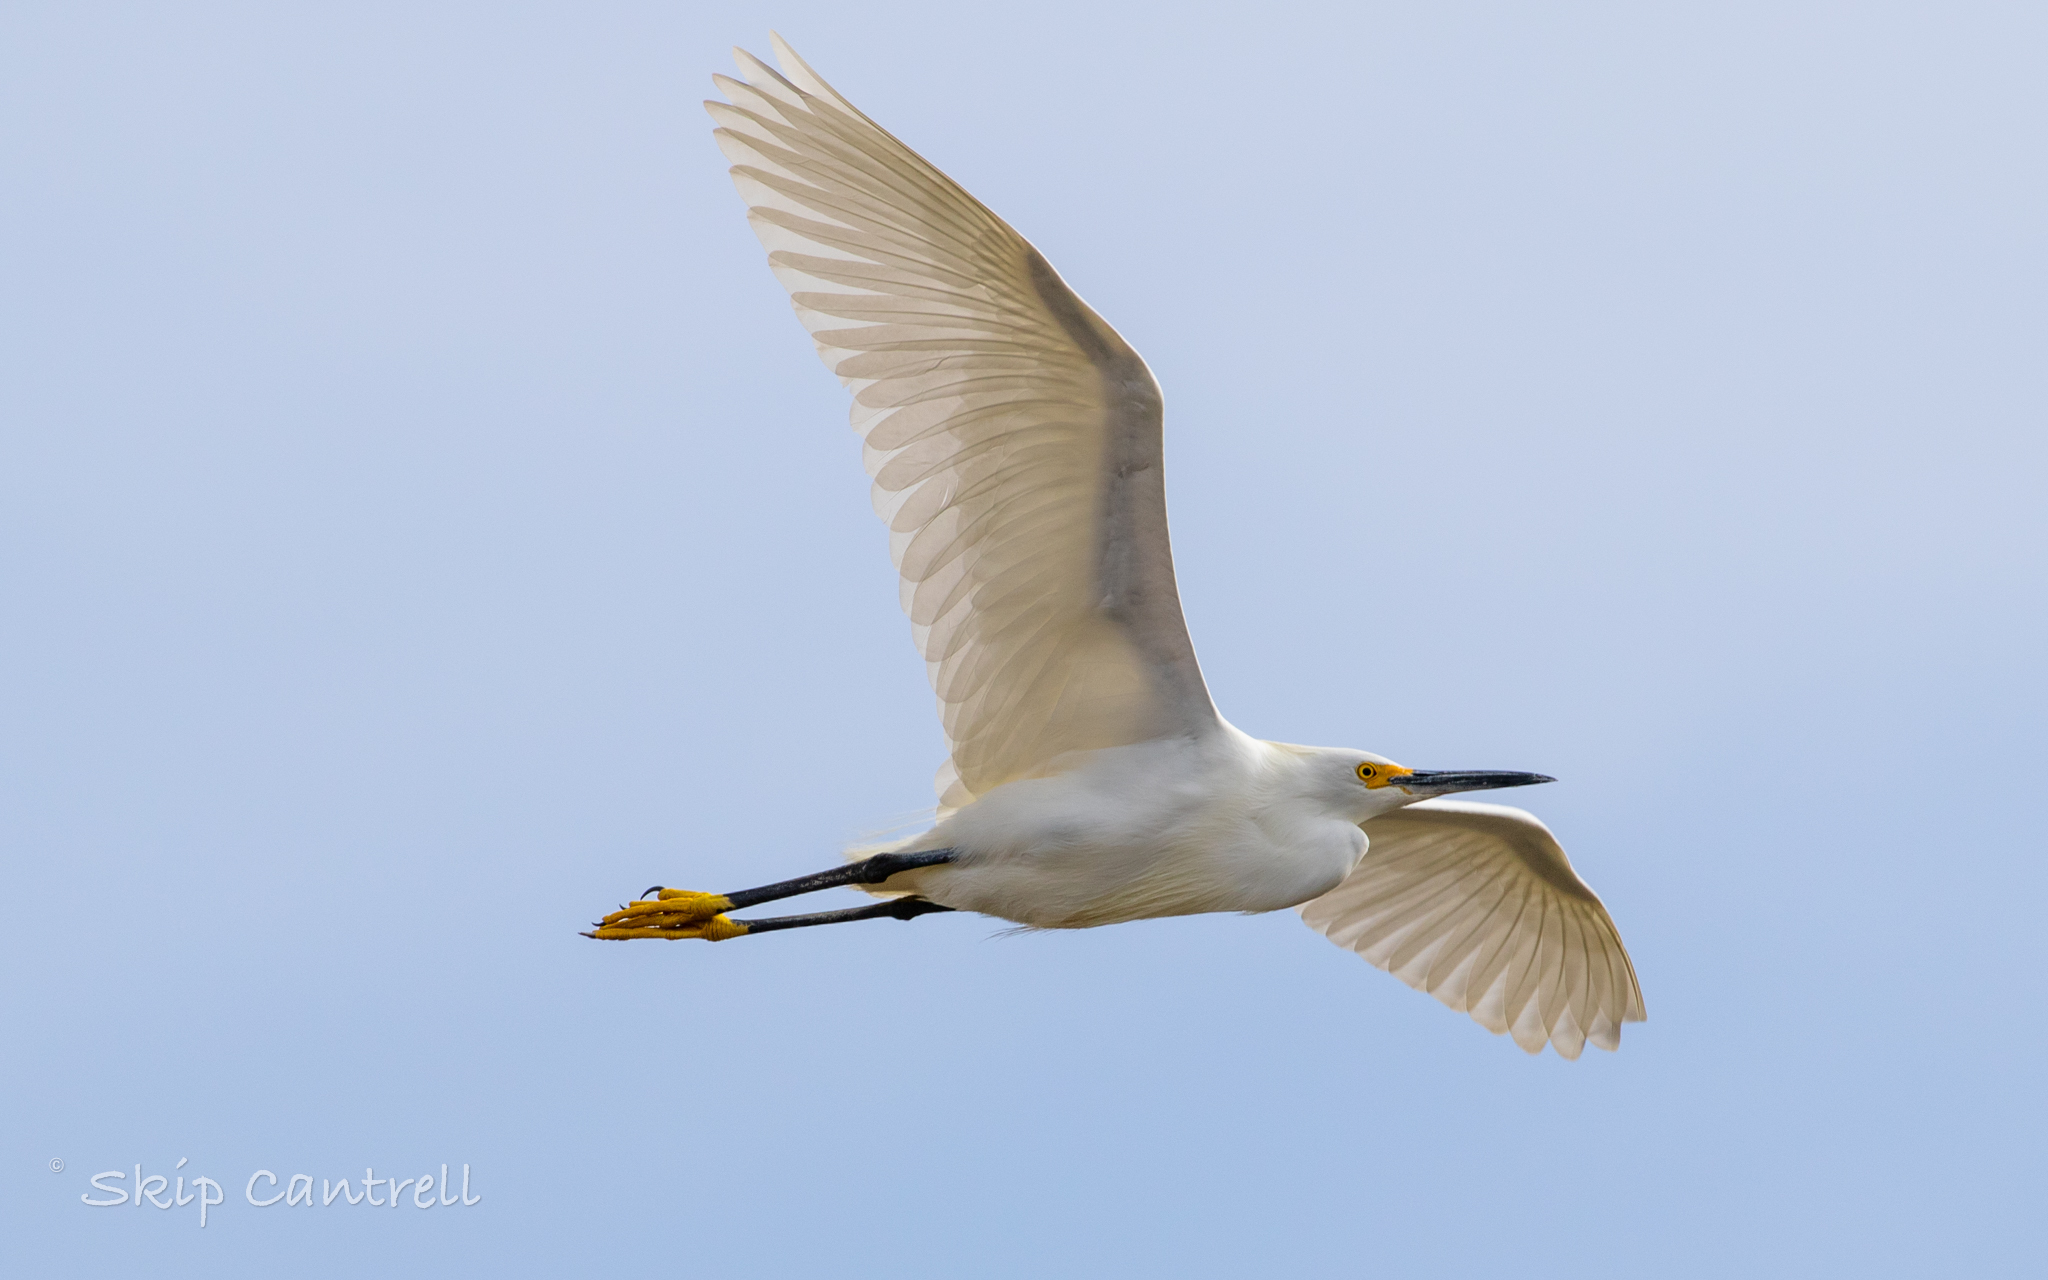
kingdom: Animalia
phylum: Chordata
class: Aves
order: Pelecaniformes
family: Ardeidae
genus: Egretta
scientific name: Egretta thula
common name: Snowy egret
